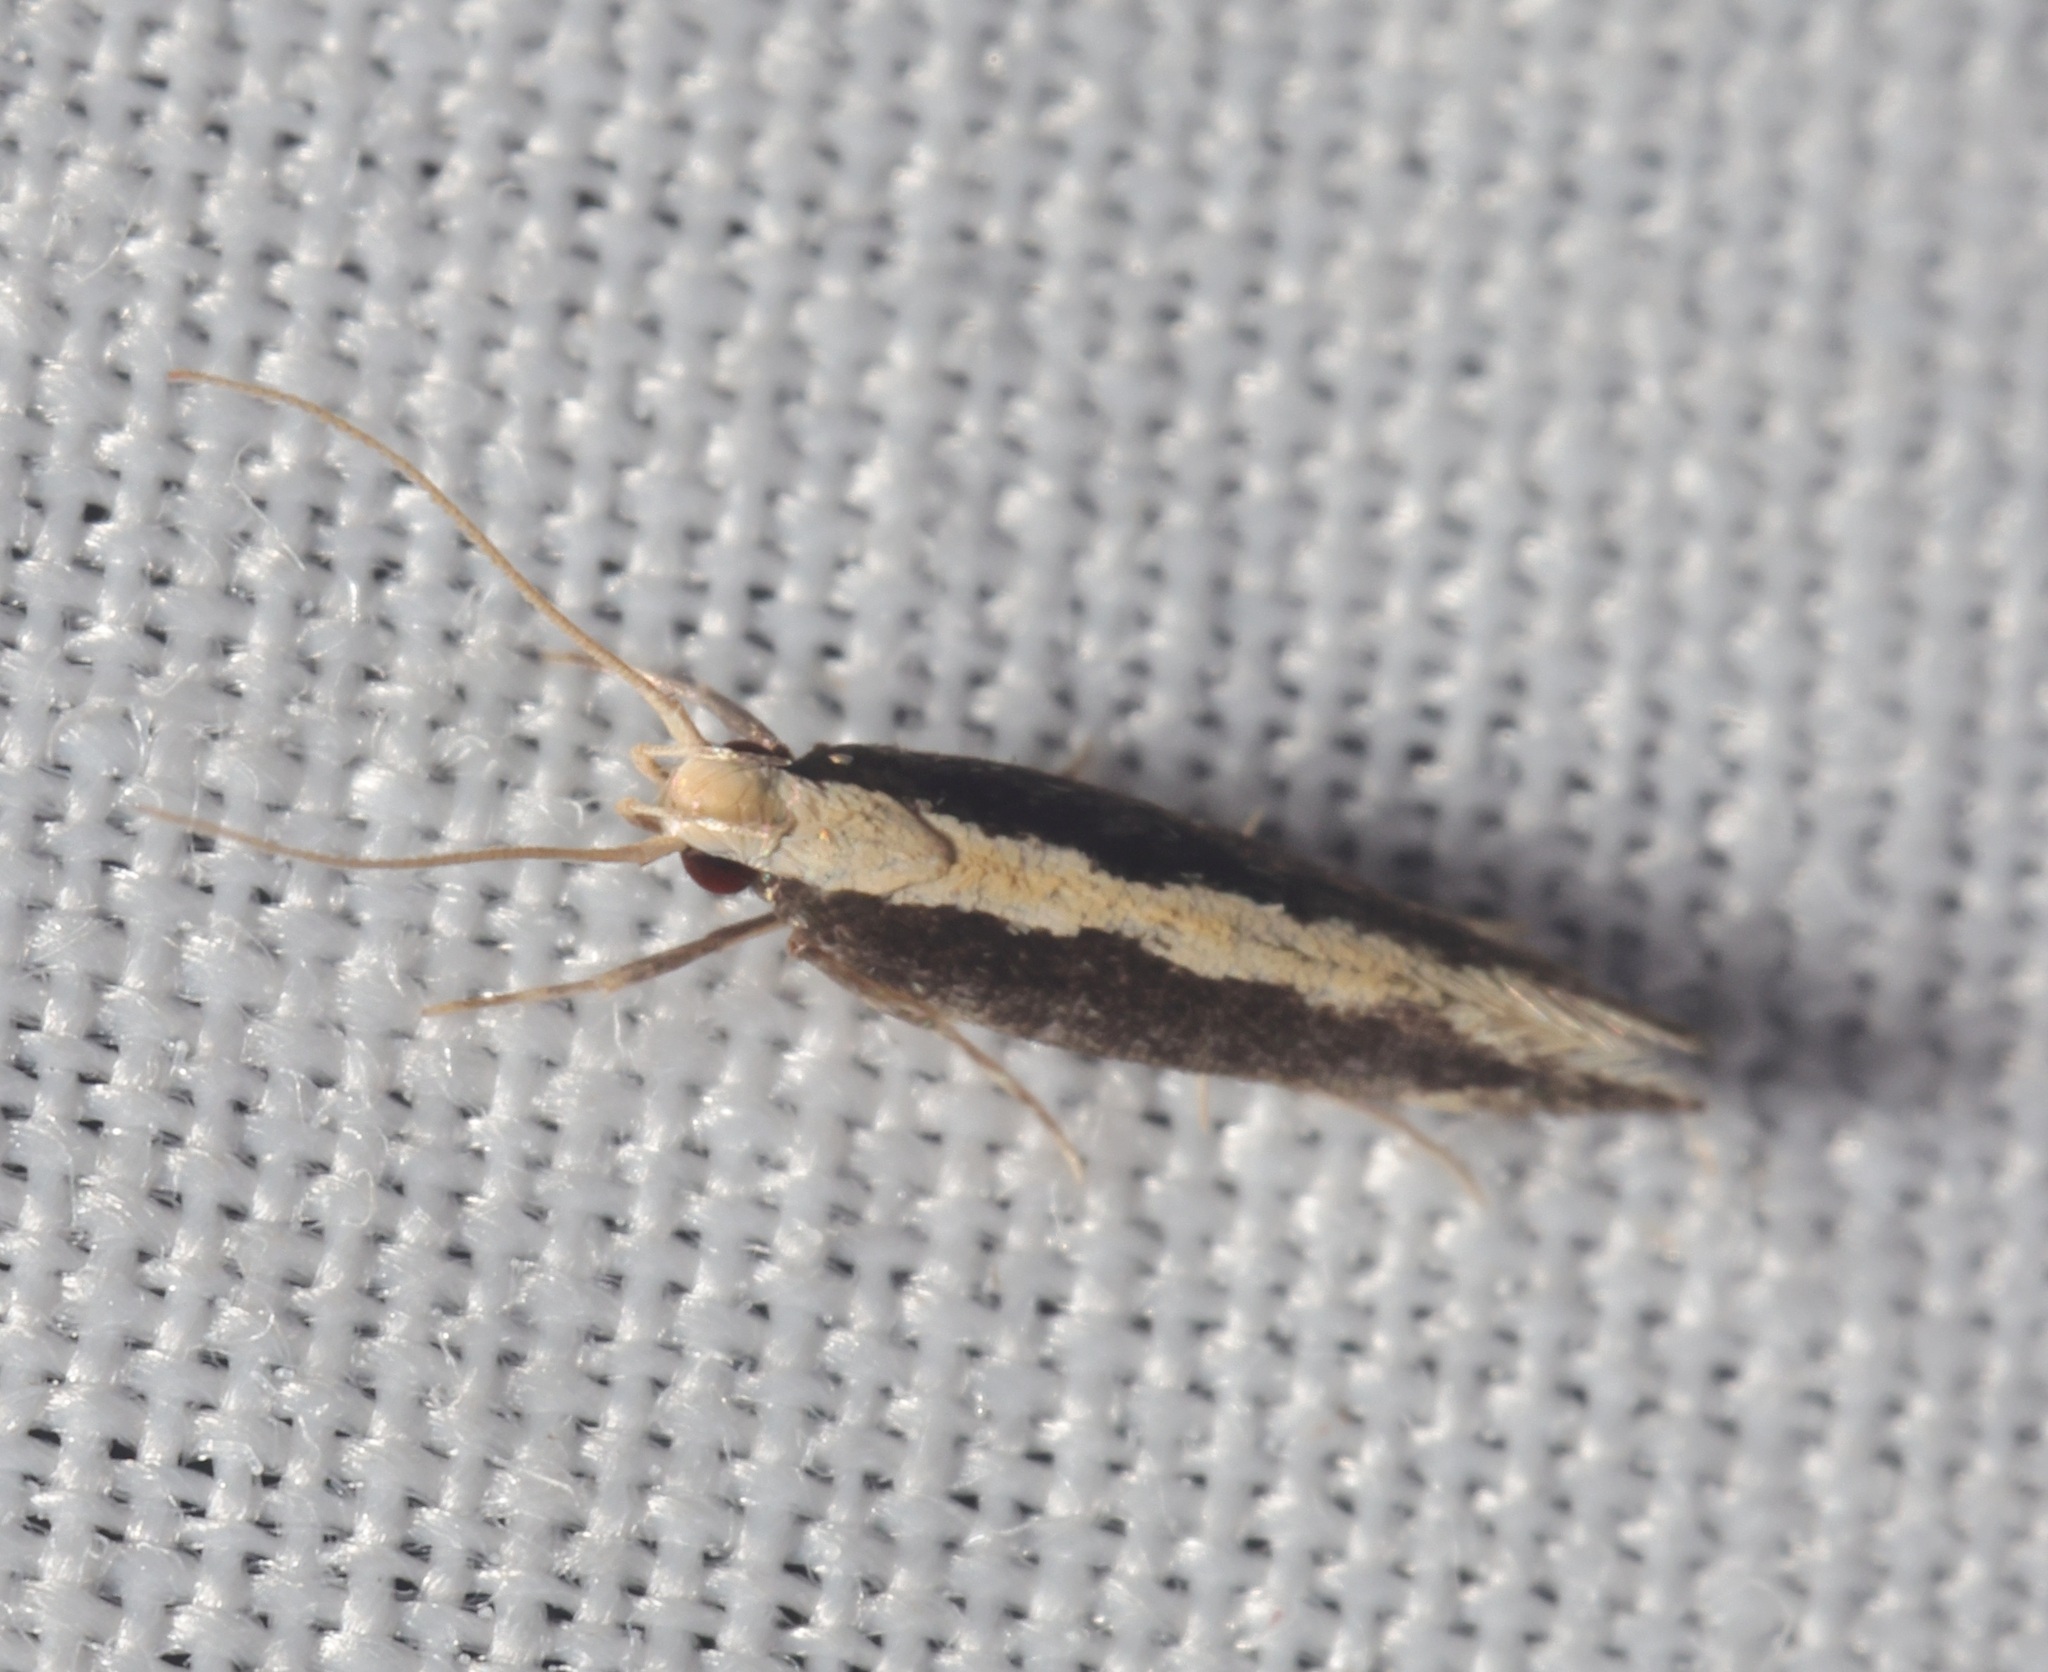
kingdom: Animalia
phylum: Arthropoda
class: Insecta
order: Lepidoptera
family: Cosmopterigidae
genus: Labdia
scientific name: Labdia oxychlora
